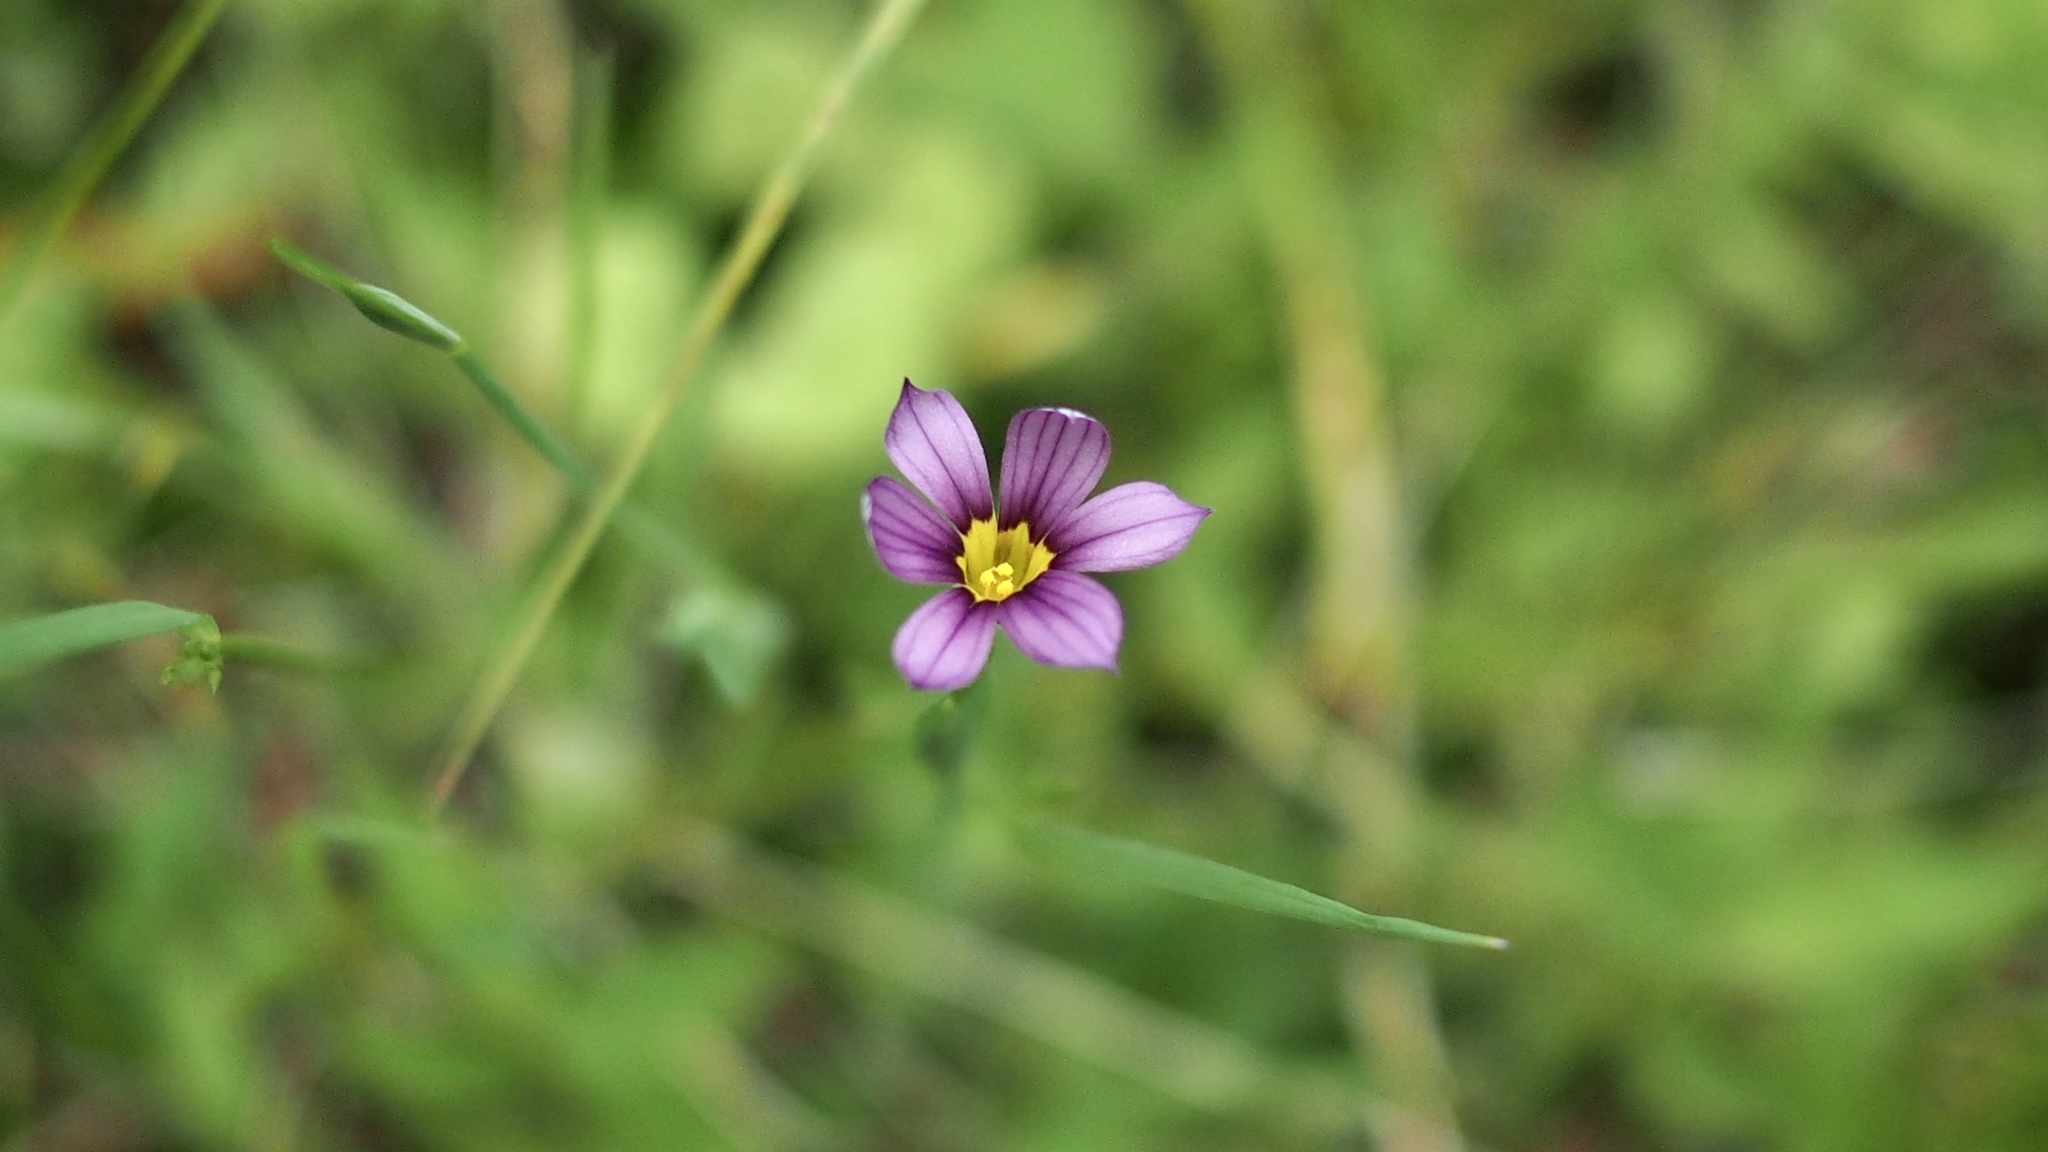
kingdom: Plantae
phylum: Tracheophyta
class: Liliopsida
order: Asparagales
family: Iridaceae
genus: Sisyrinchium
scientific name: Sisyrinchium micranthum
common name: Bermuda pigroot
